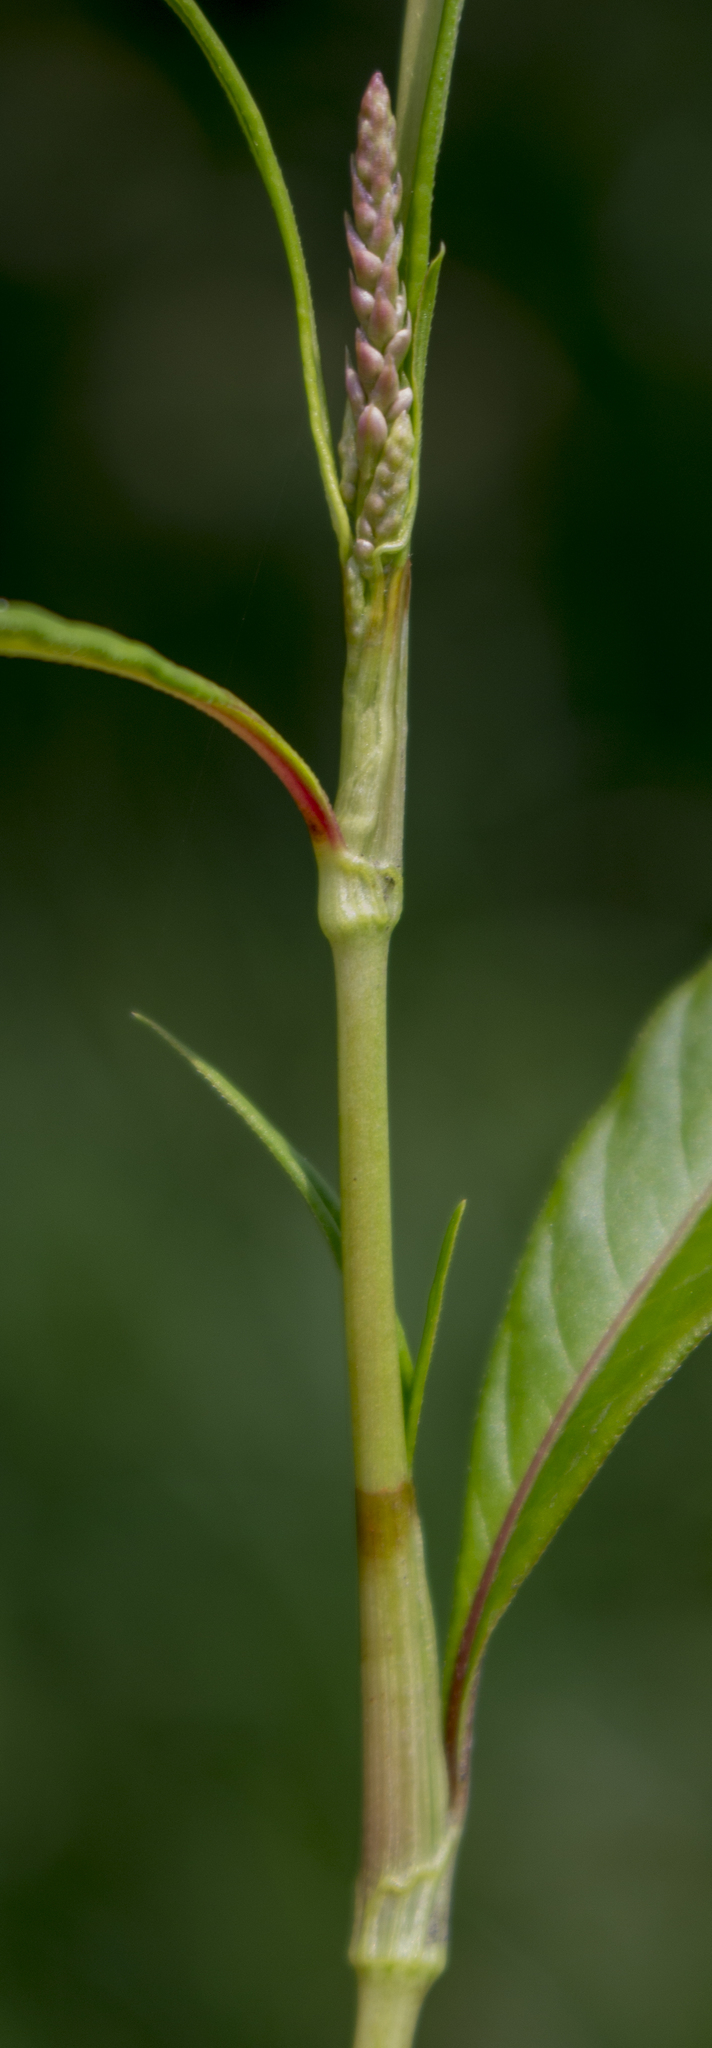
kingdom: Plantae
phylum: Tracheophyta
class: Magnoliopsida
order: Caryophyllales
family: Polygonaceae
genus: Persicaria
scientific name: Persicaria lapathifolia
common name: Curlytop knotweed
